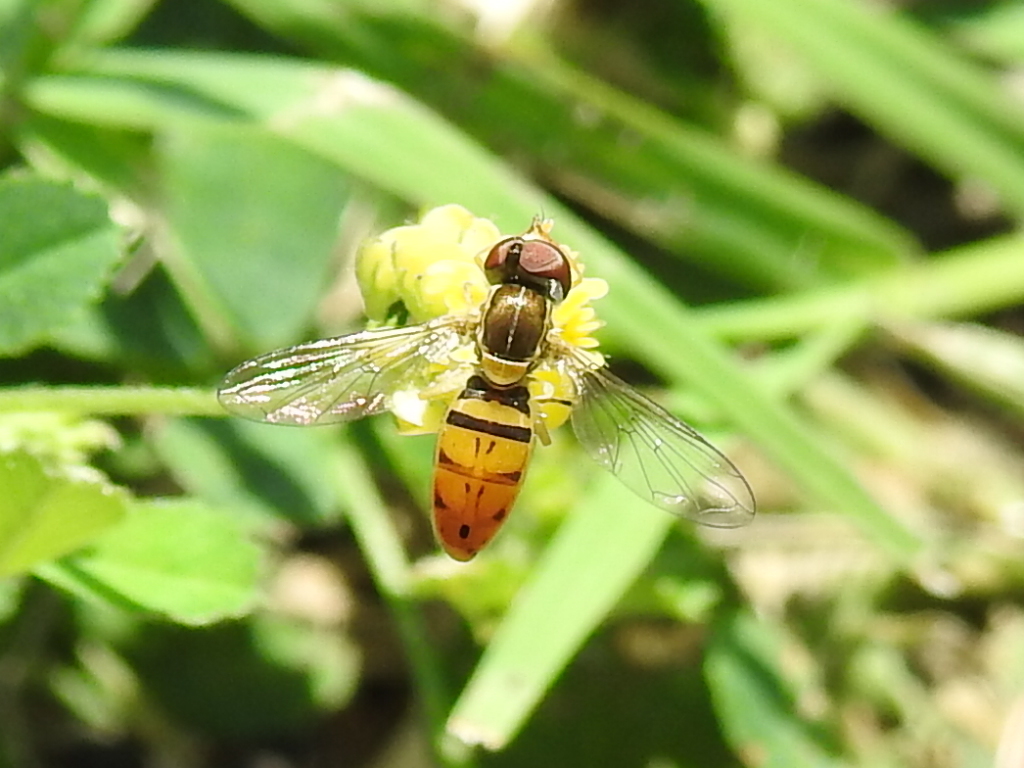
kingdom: Animalia
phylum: Arthropoda
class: Insecta
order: Diptera
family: Syrphidae
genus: Toxomerus
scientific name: Toxomerus marginatus
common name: Syrphid fly
